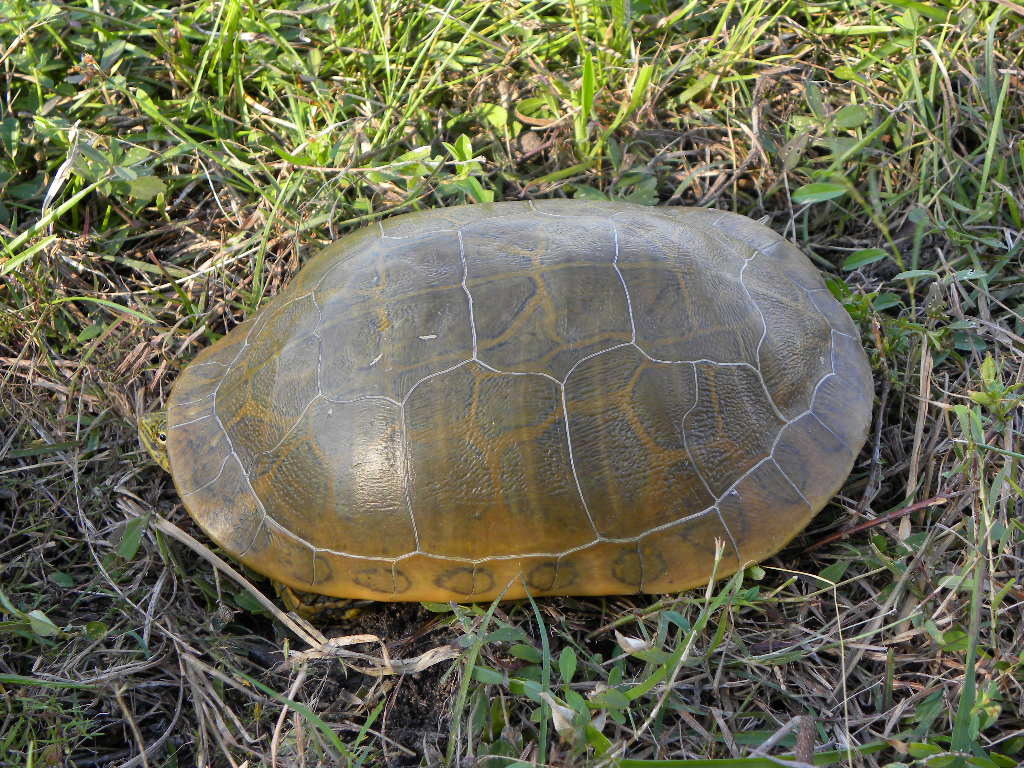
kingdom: Animalia
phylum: Chordata
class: Testudines
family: Emydidae
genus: Deirochelys
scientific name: Deirochelys reticularia
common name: Chicken turtle
